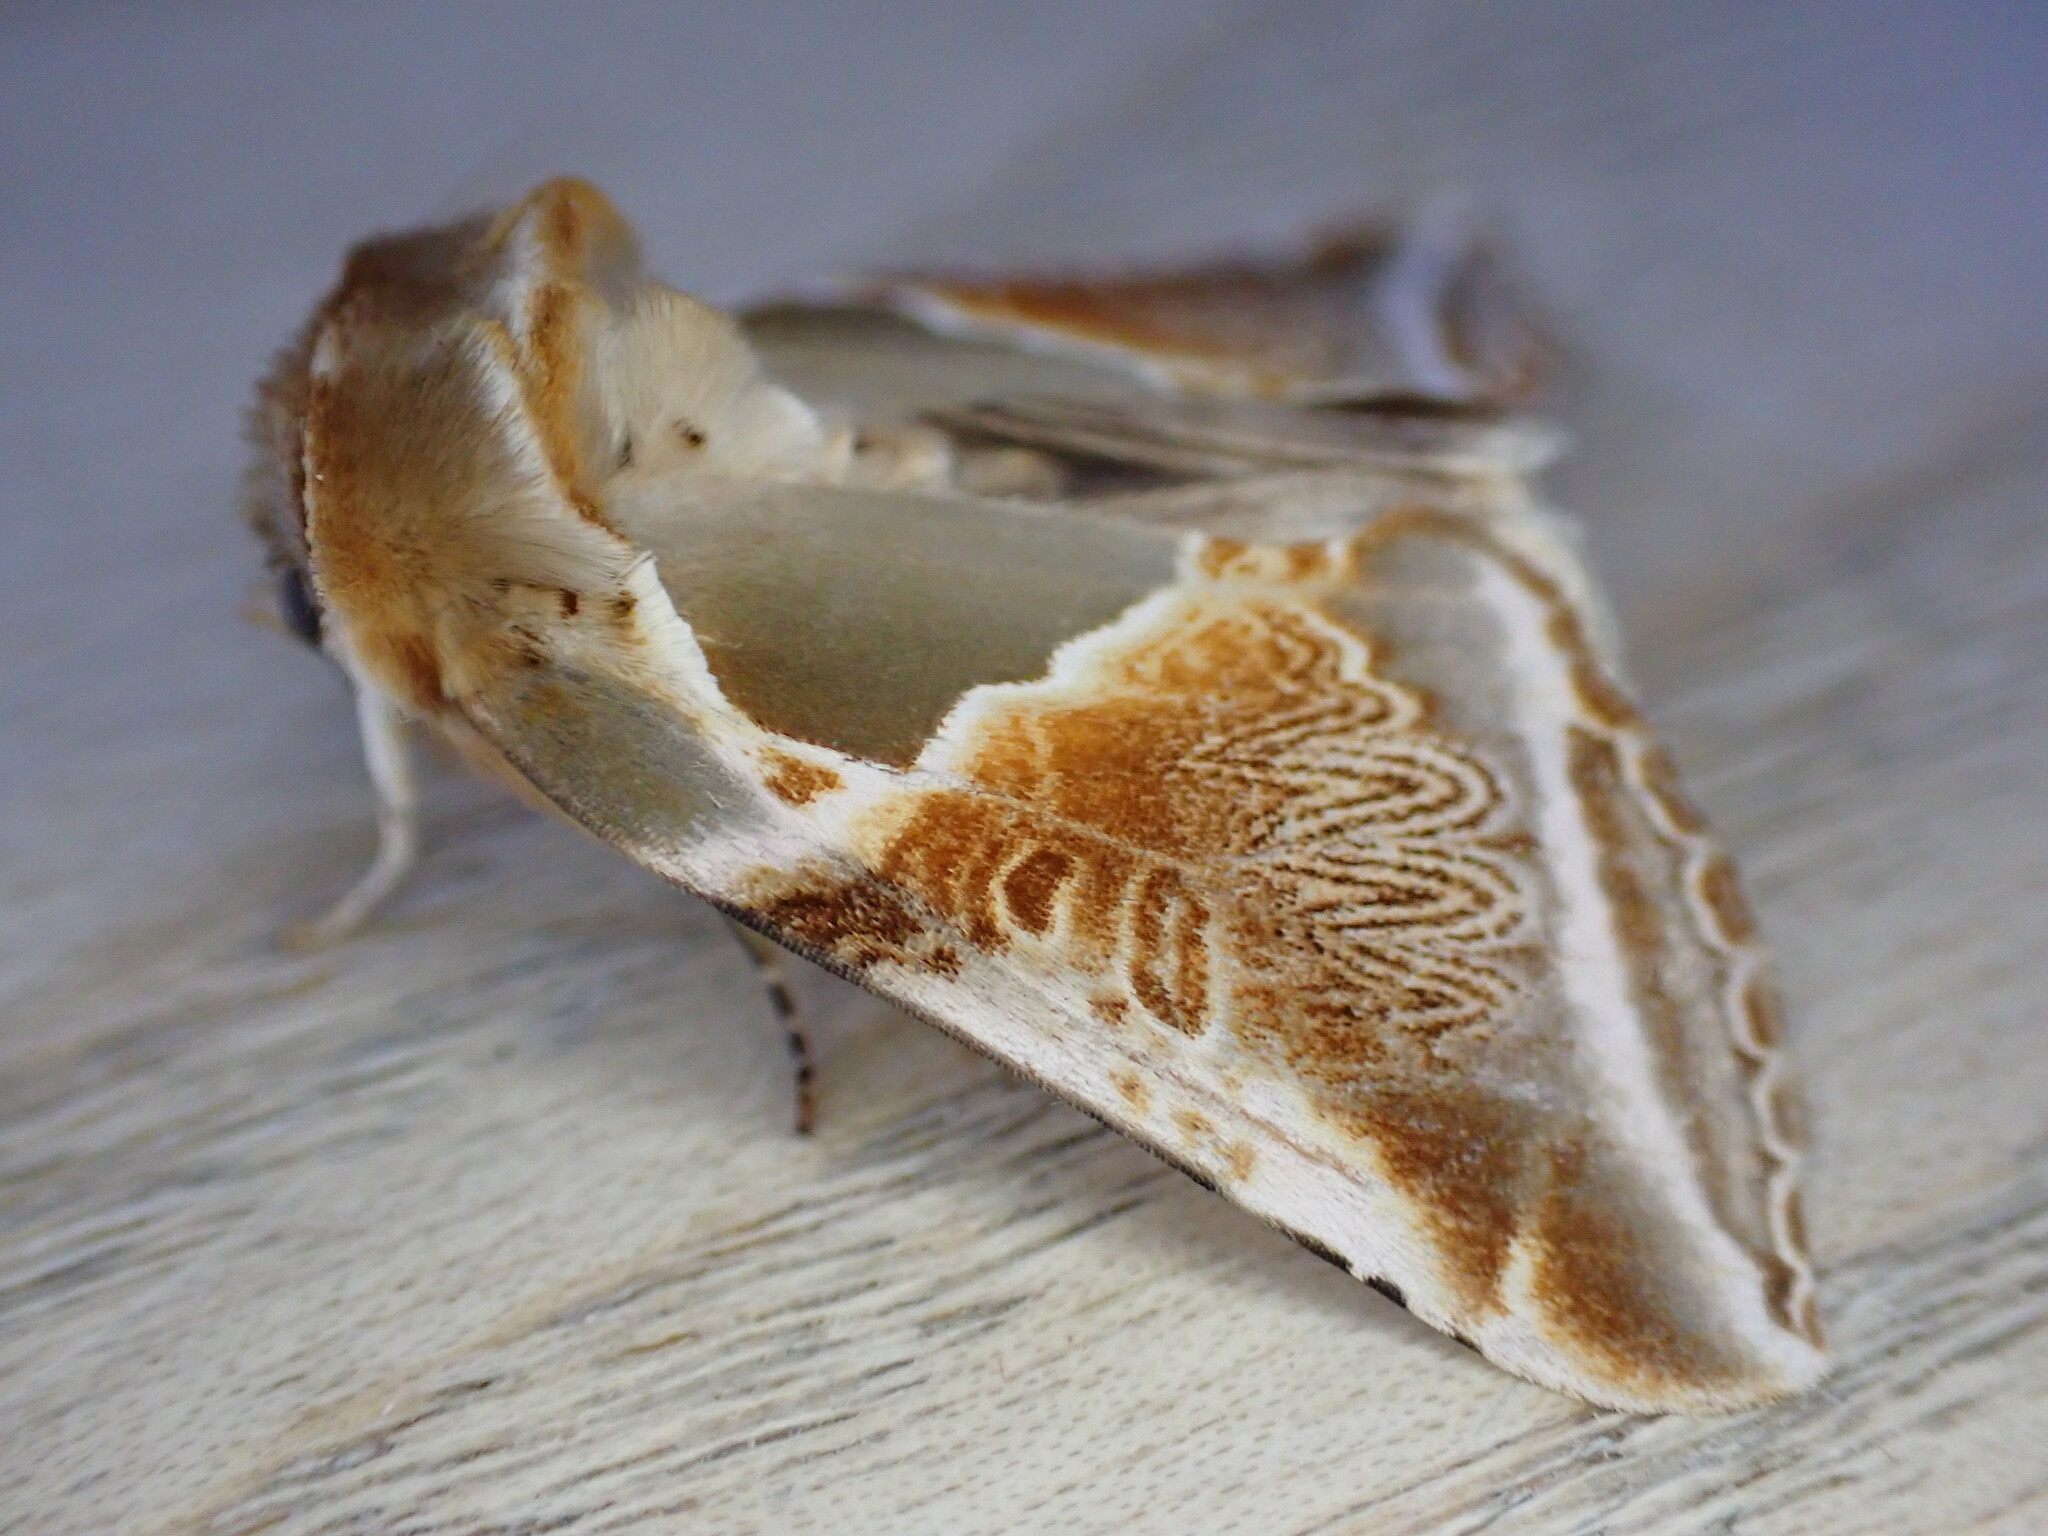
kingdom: Animalia
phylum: Arthropoda
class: Insecta
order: Lepidoptera
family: Drepanidae
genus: Habrosyne
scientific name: Habrosyne pyritoides
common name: Buff arches
